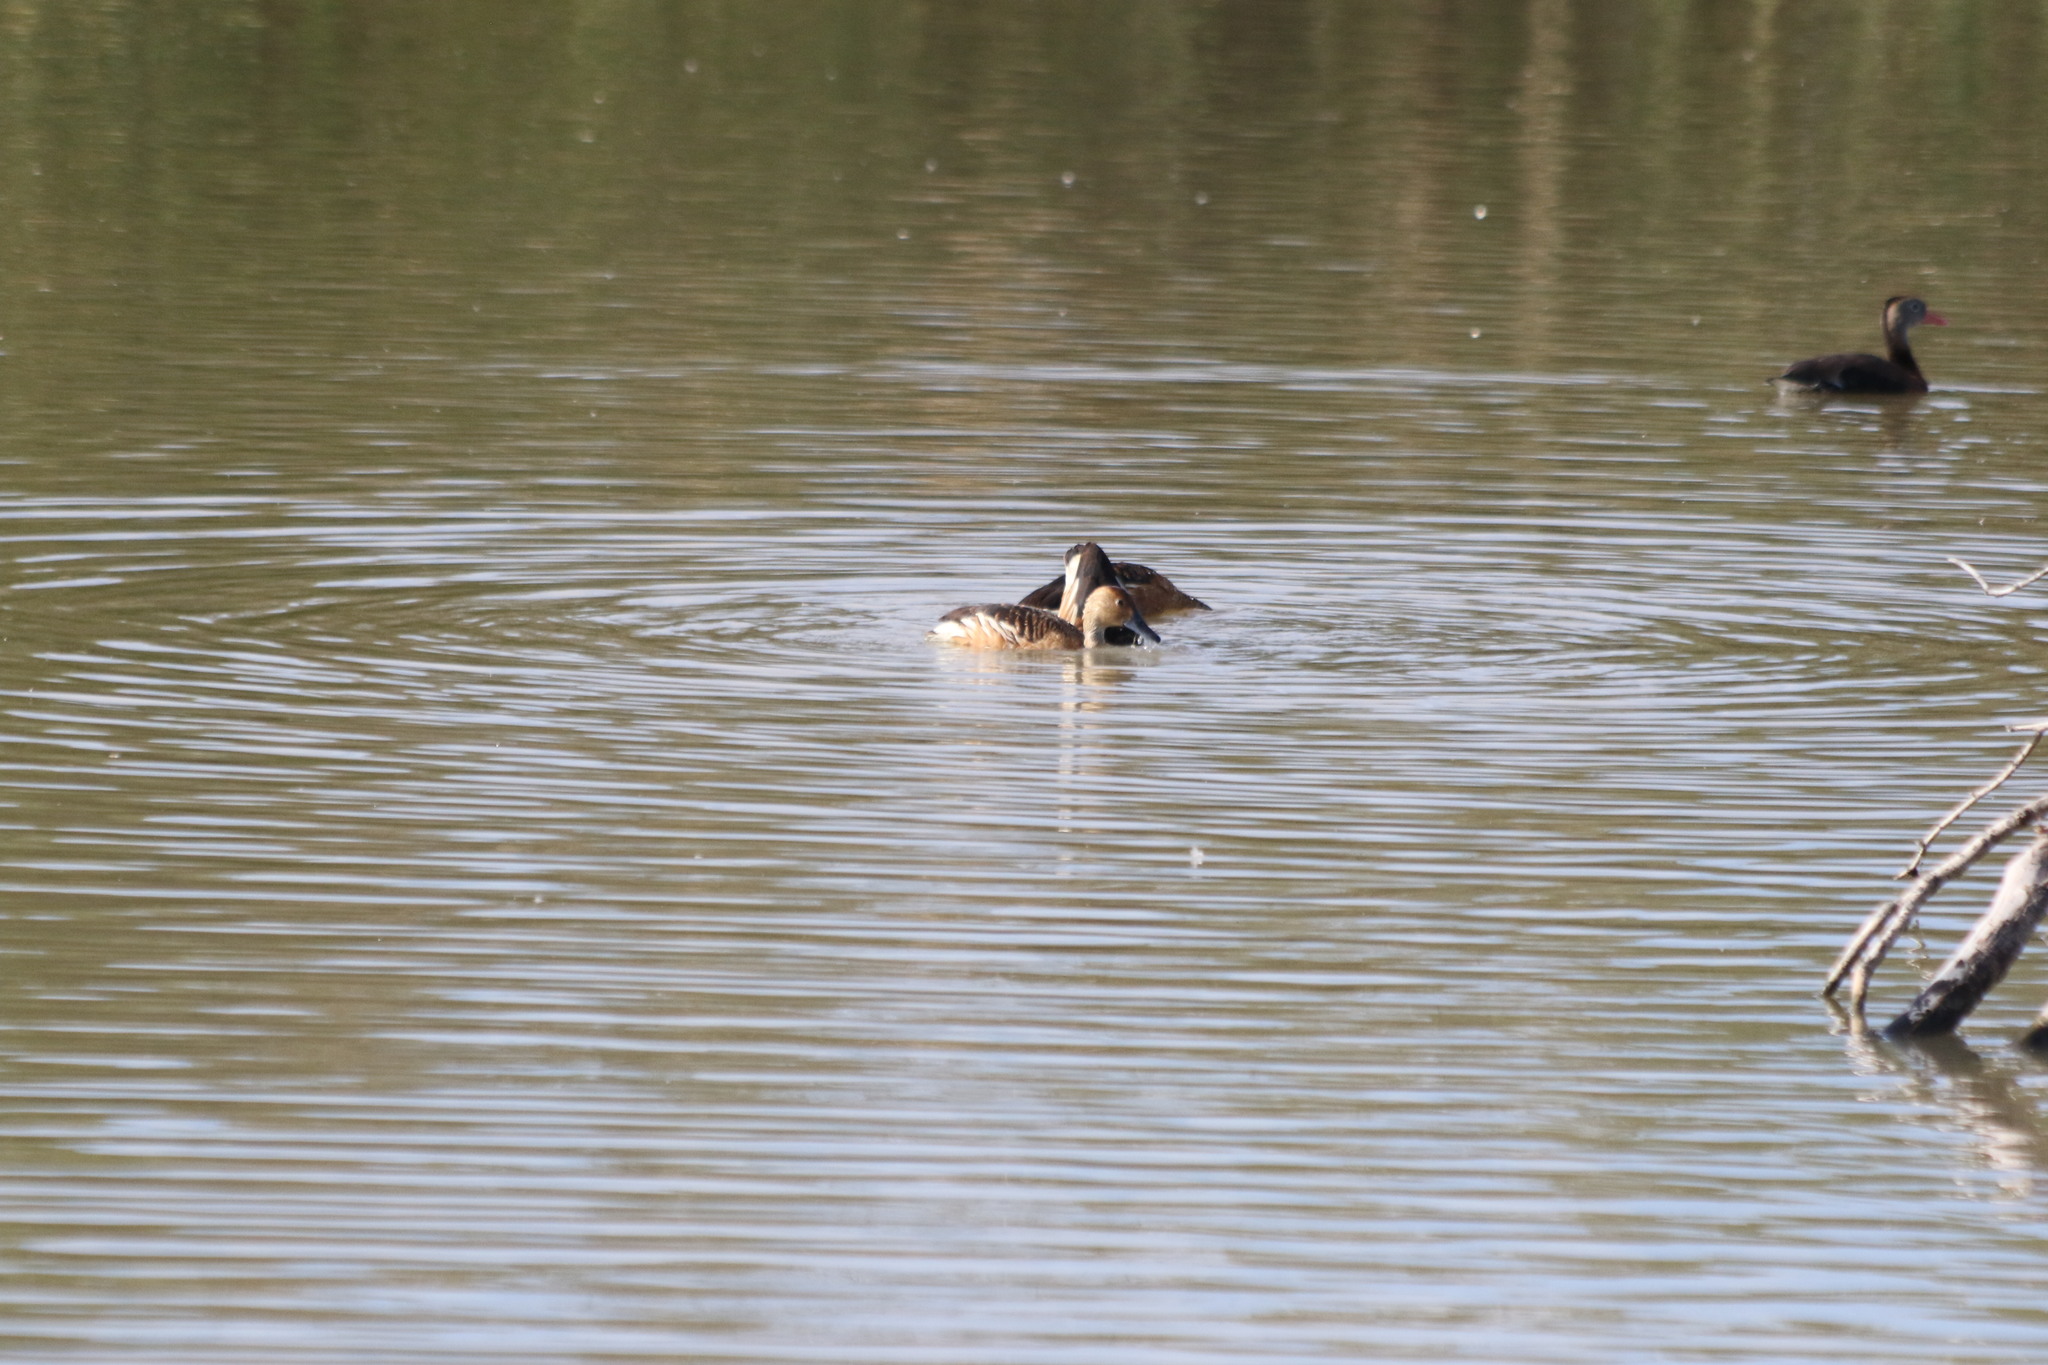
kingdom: Animalia
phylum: Chordata
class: Aves
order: Anseriformes
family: Anatidae
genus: Dendrocygna
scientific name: Dendrocygna bicolor
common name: Fulvous whistling duck
